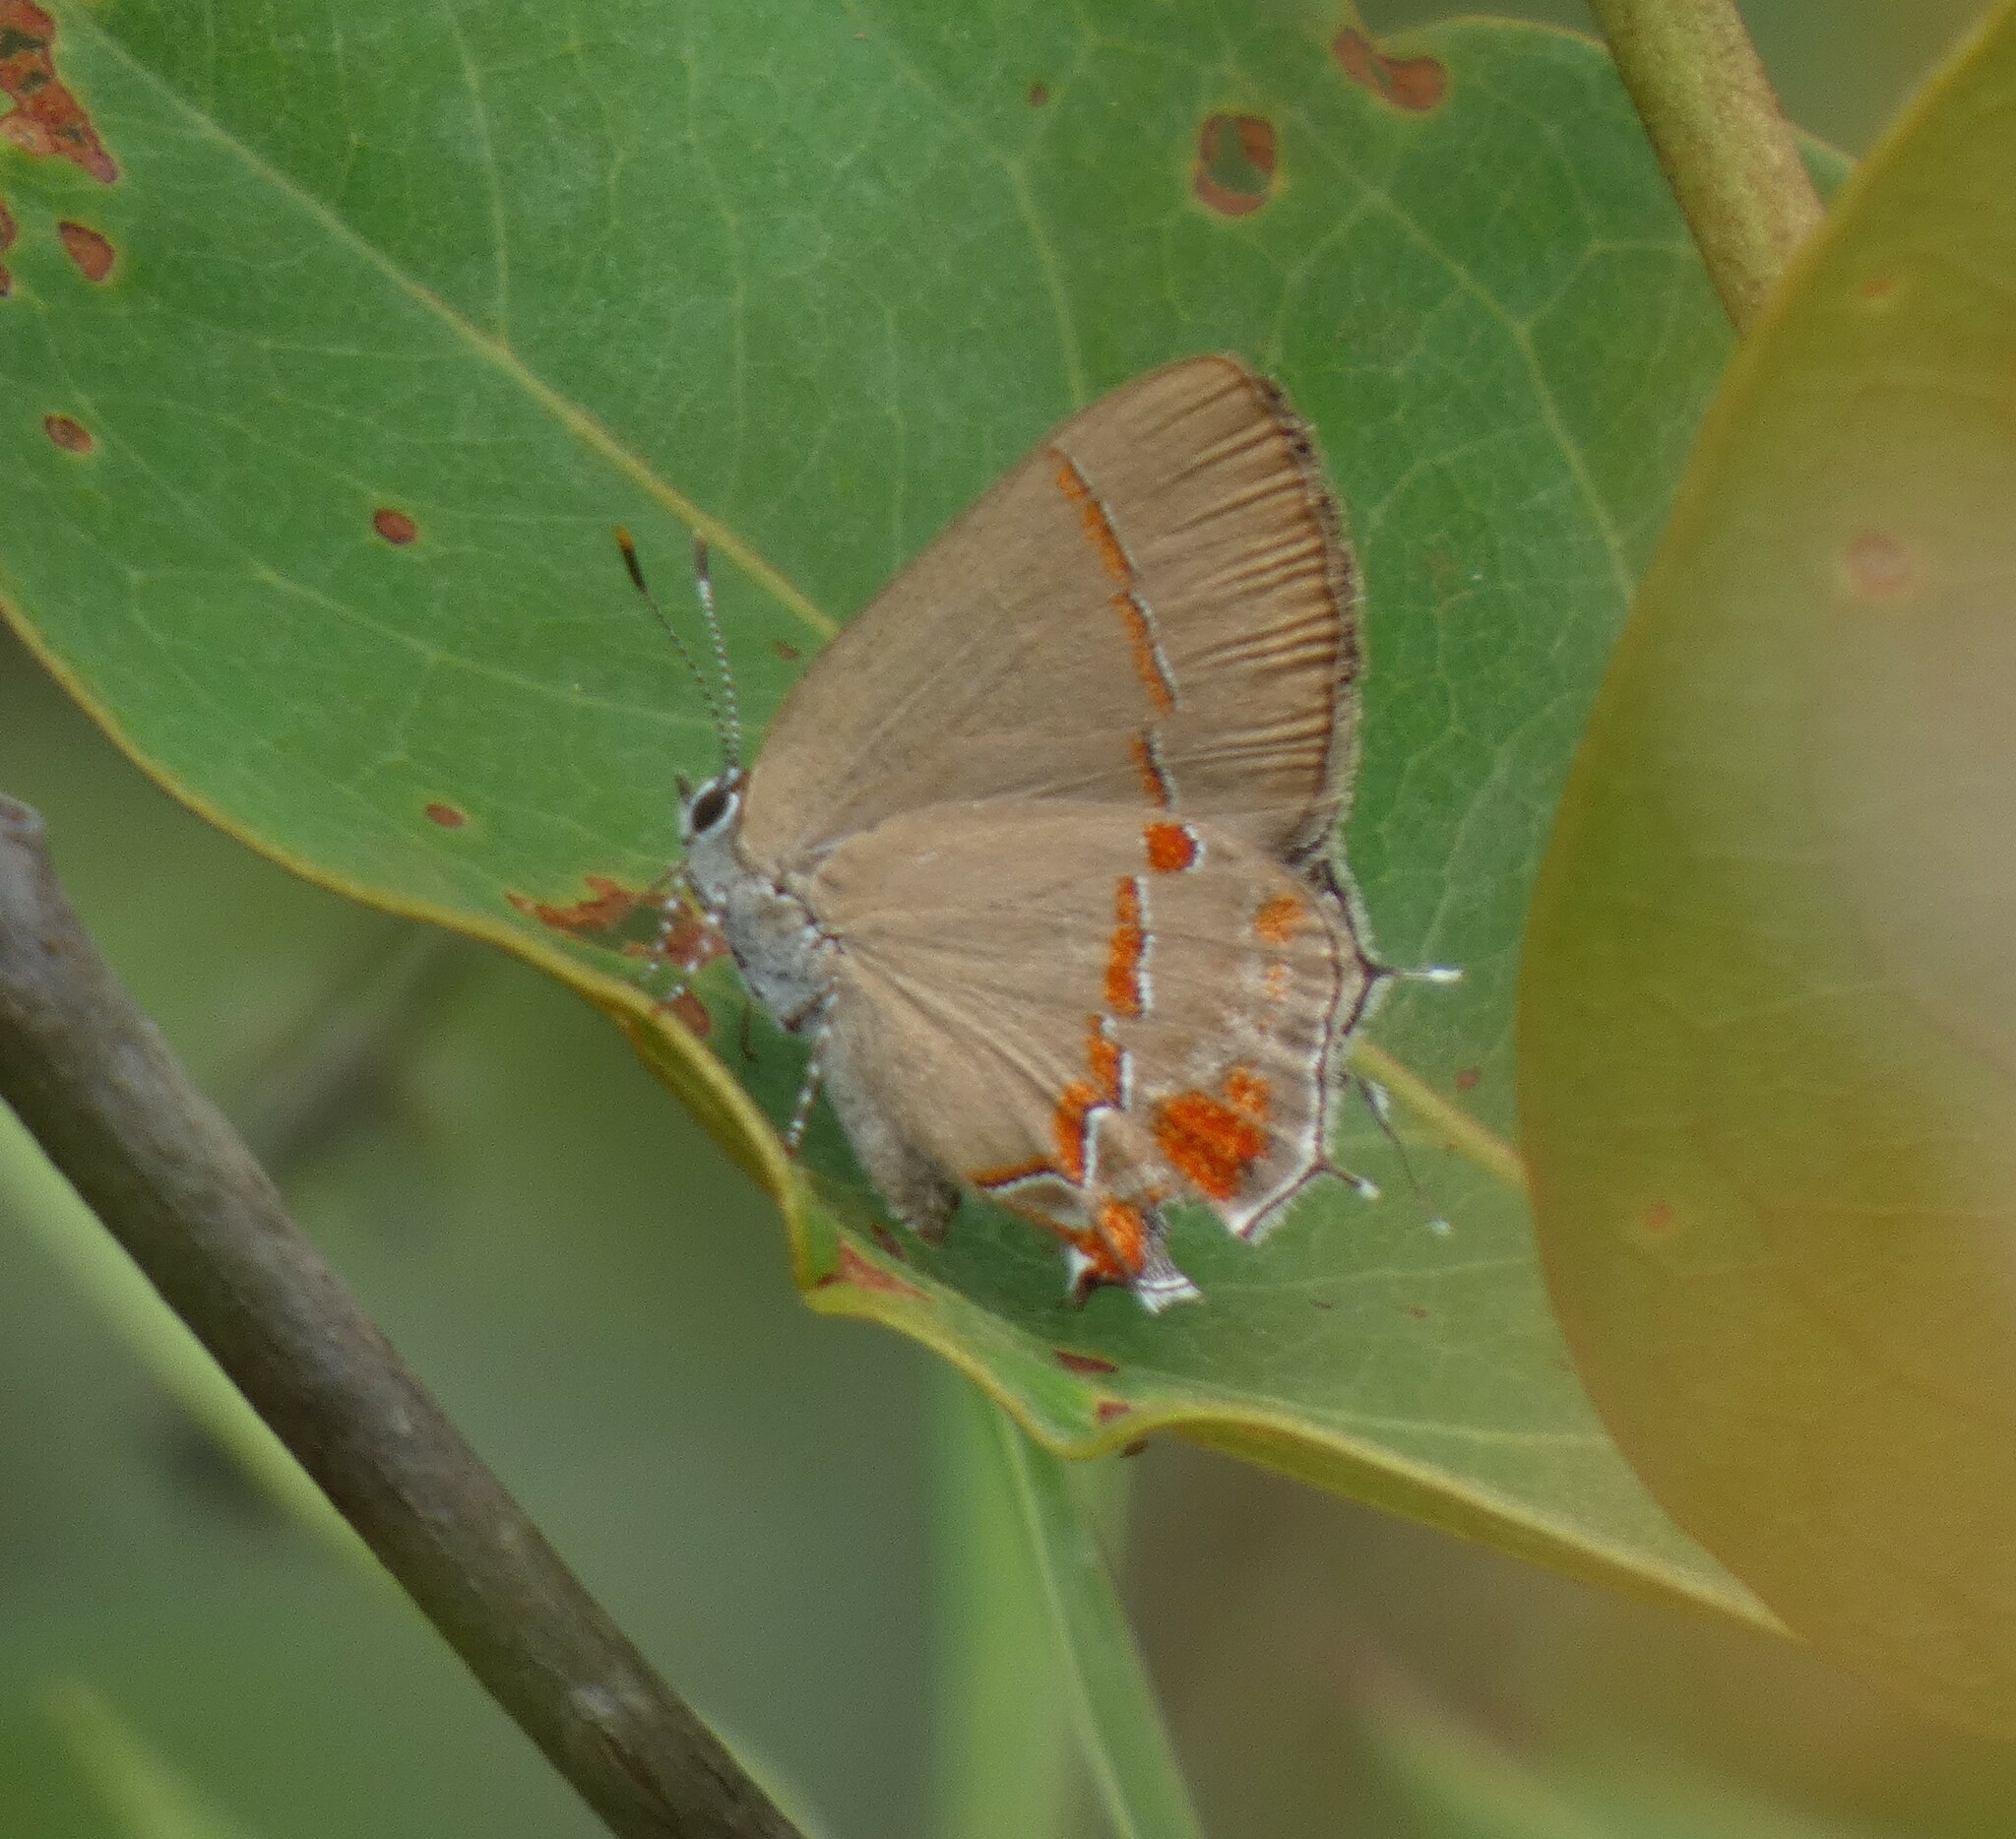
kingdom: Animalia
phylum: Arthropoda
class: Insecta
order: Lepidoptera
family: Lycaenidae
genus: Thecla
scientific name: Thecla badaca
